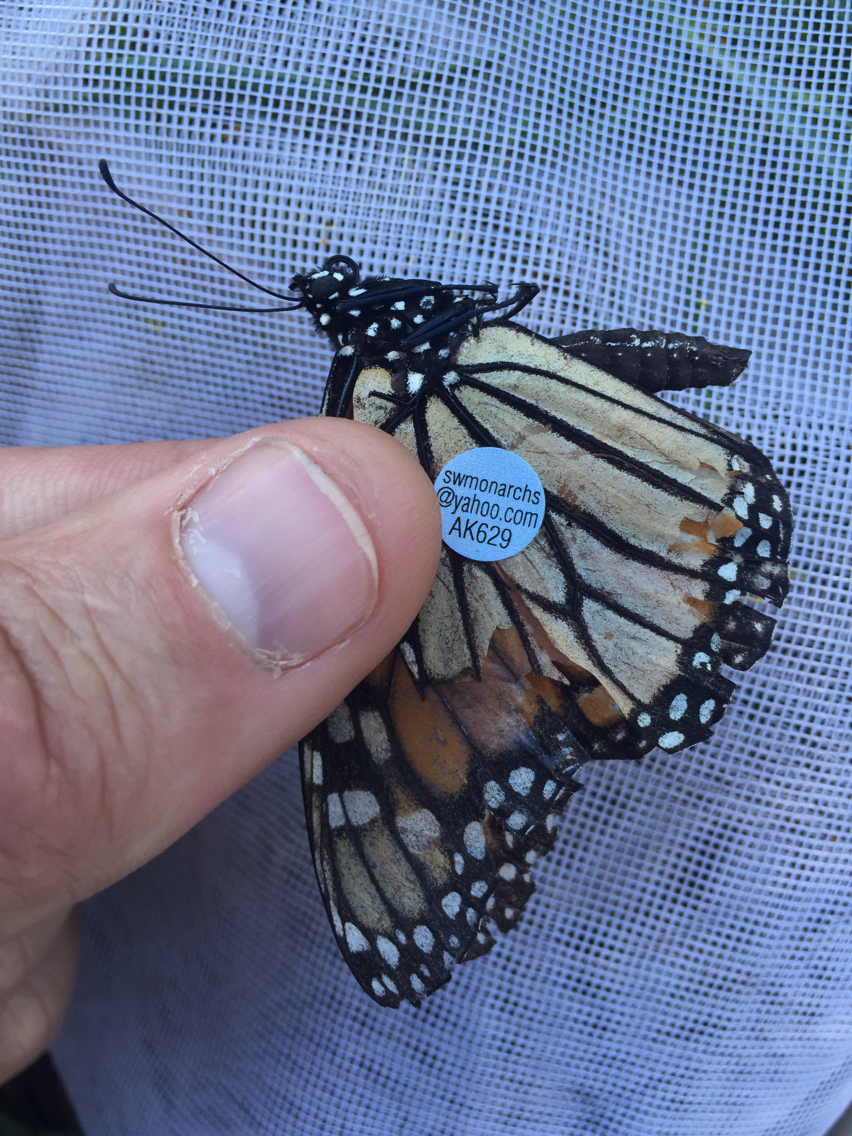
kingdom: Animalia
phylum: Arthropoda
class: Insecta
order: Lepidoptera
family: Nymphalidae
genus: Danaus
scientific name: Danaus plexippus
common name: Monarch
